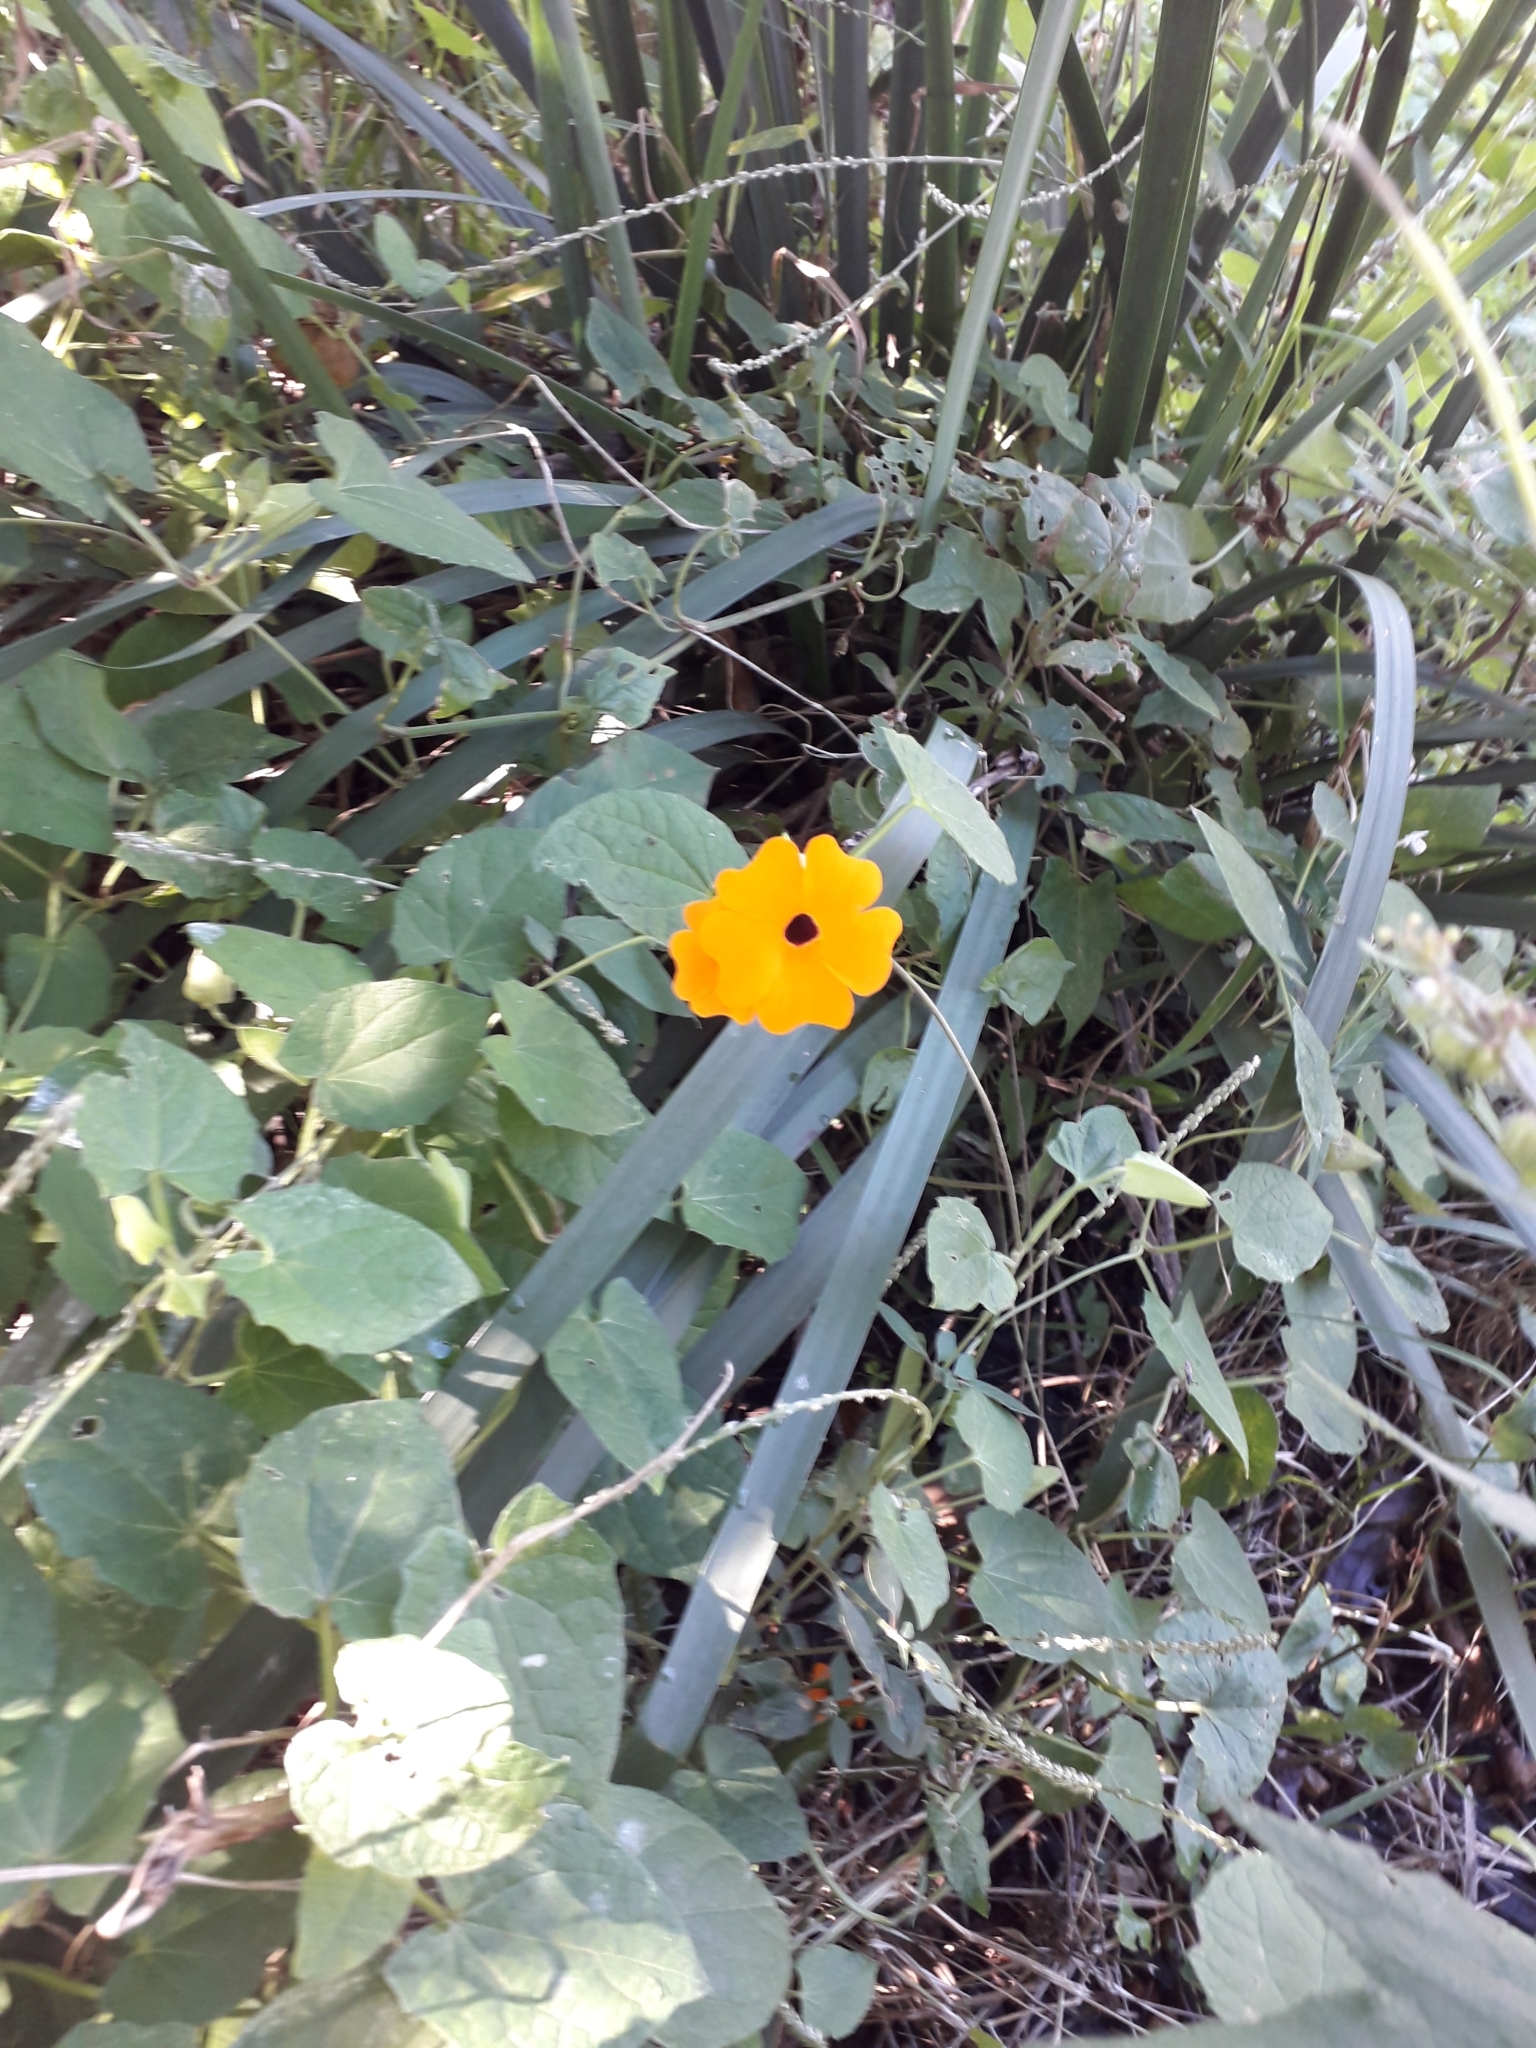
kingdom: Plantae
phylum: Tracheophyta
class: Magnoliopsida
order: Lamiales
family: Acanthaceae
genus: Thunbergia
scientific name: Thunbergia alata
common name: Blackeyed susan vine
